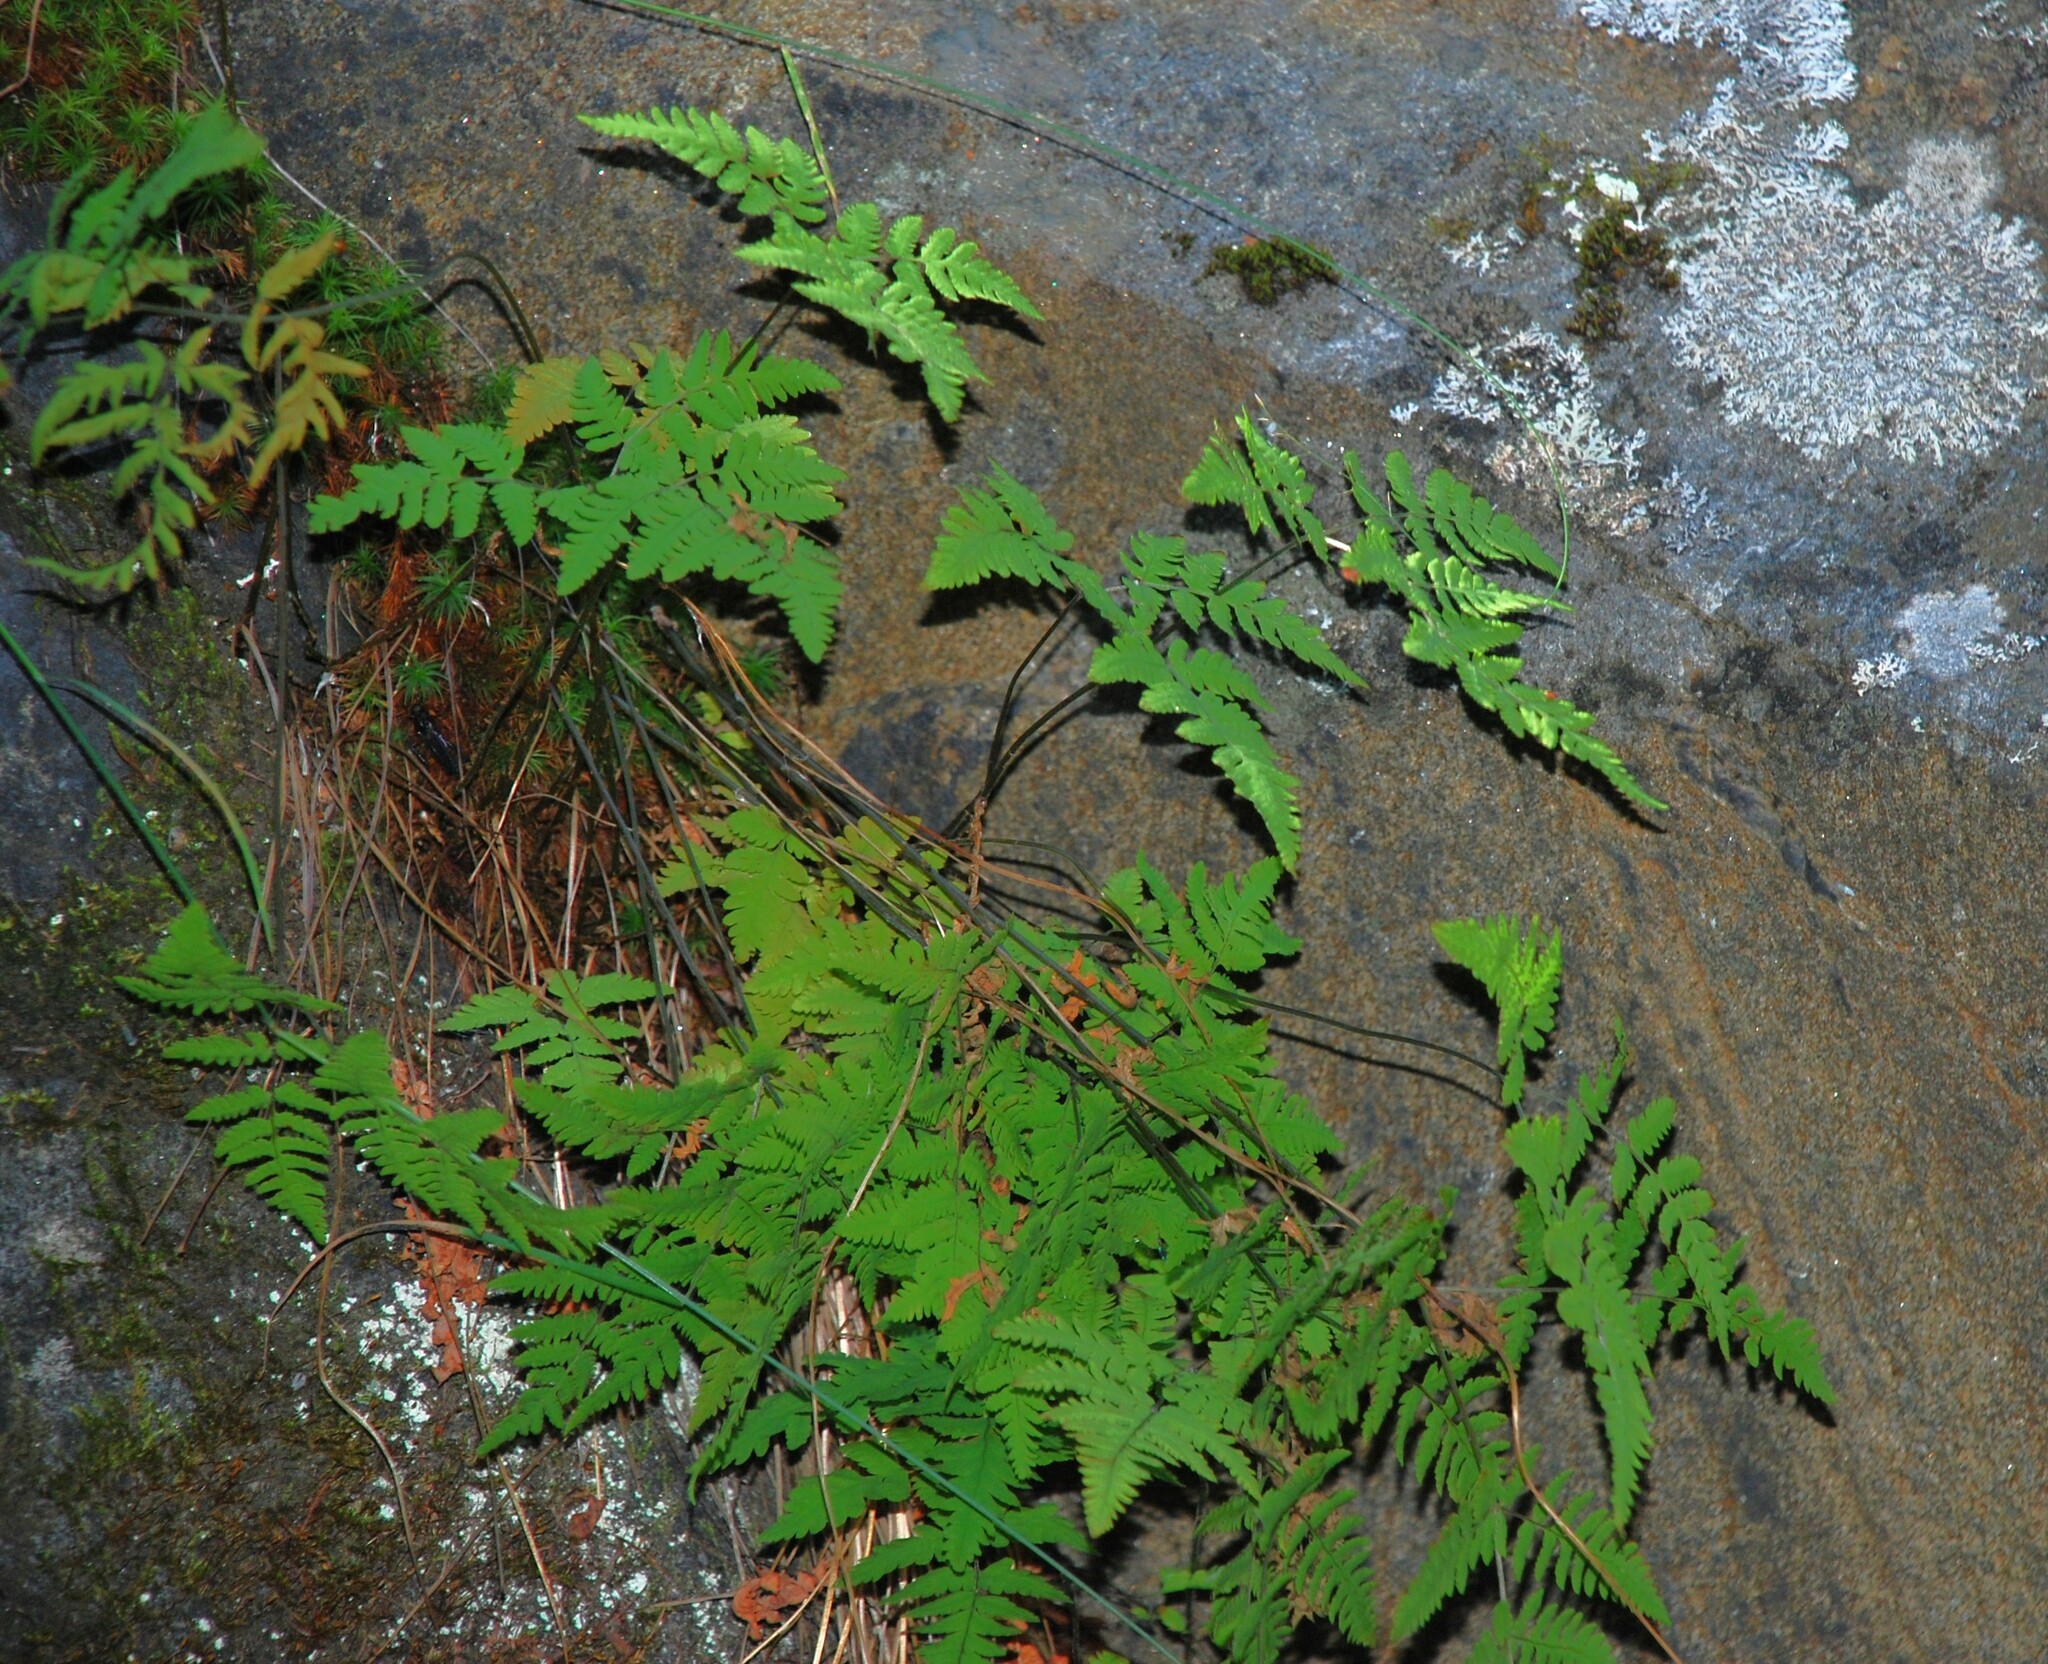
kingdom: Plantae
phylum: Tracheophyta
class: Polypodiopsida
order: Polypodiales
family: Cystopteridaceae
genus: Gymnocarpium
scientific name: Gymnocarpium jessoense
